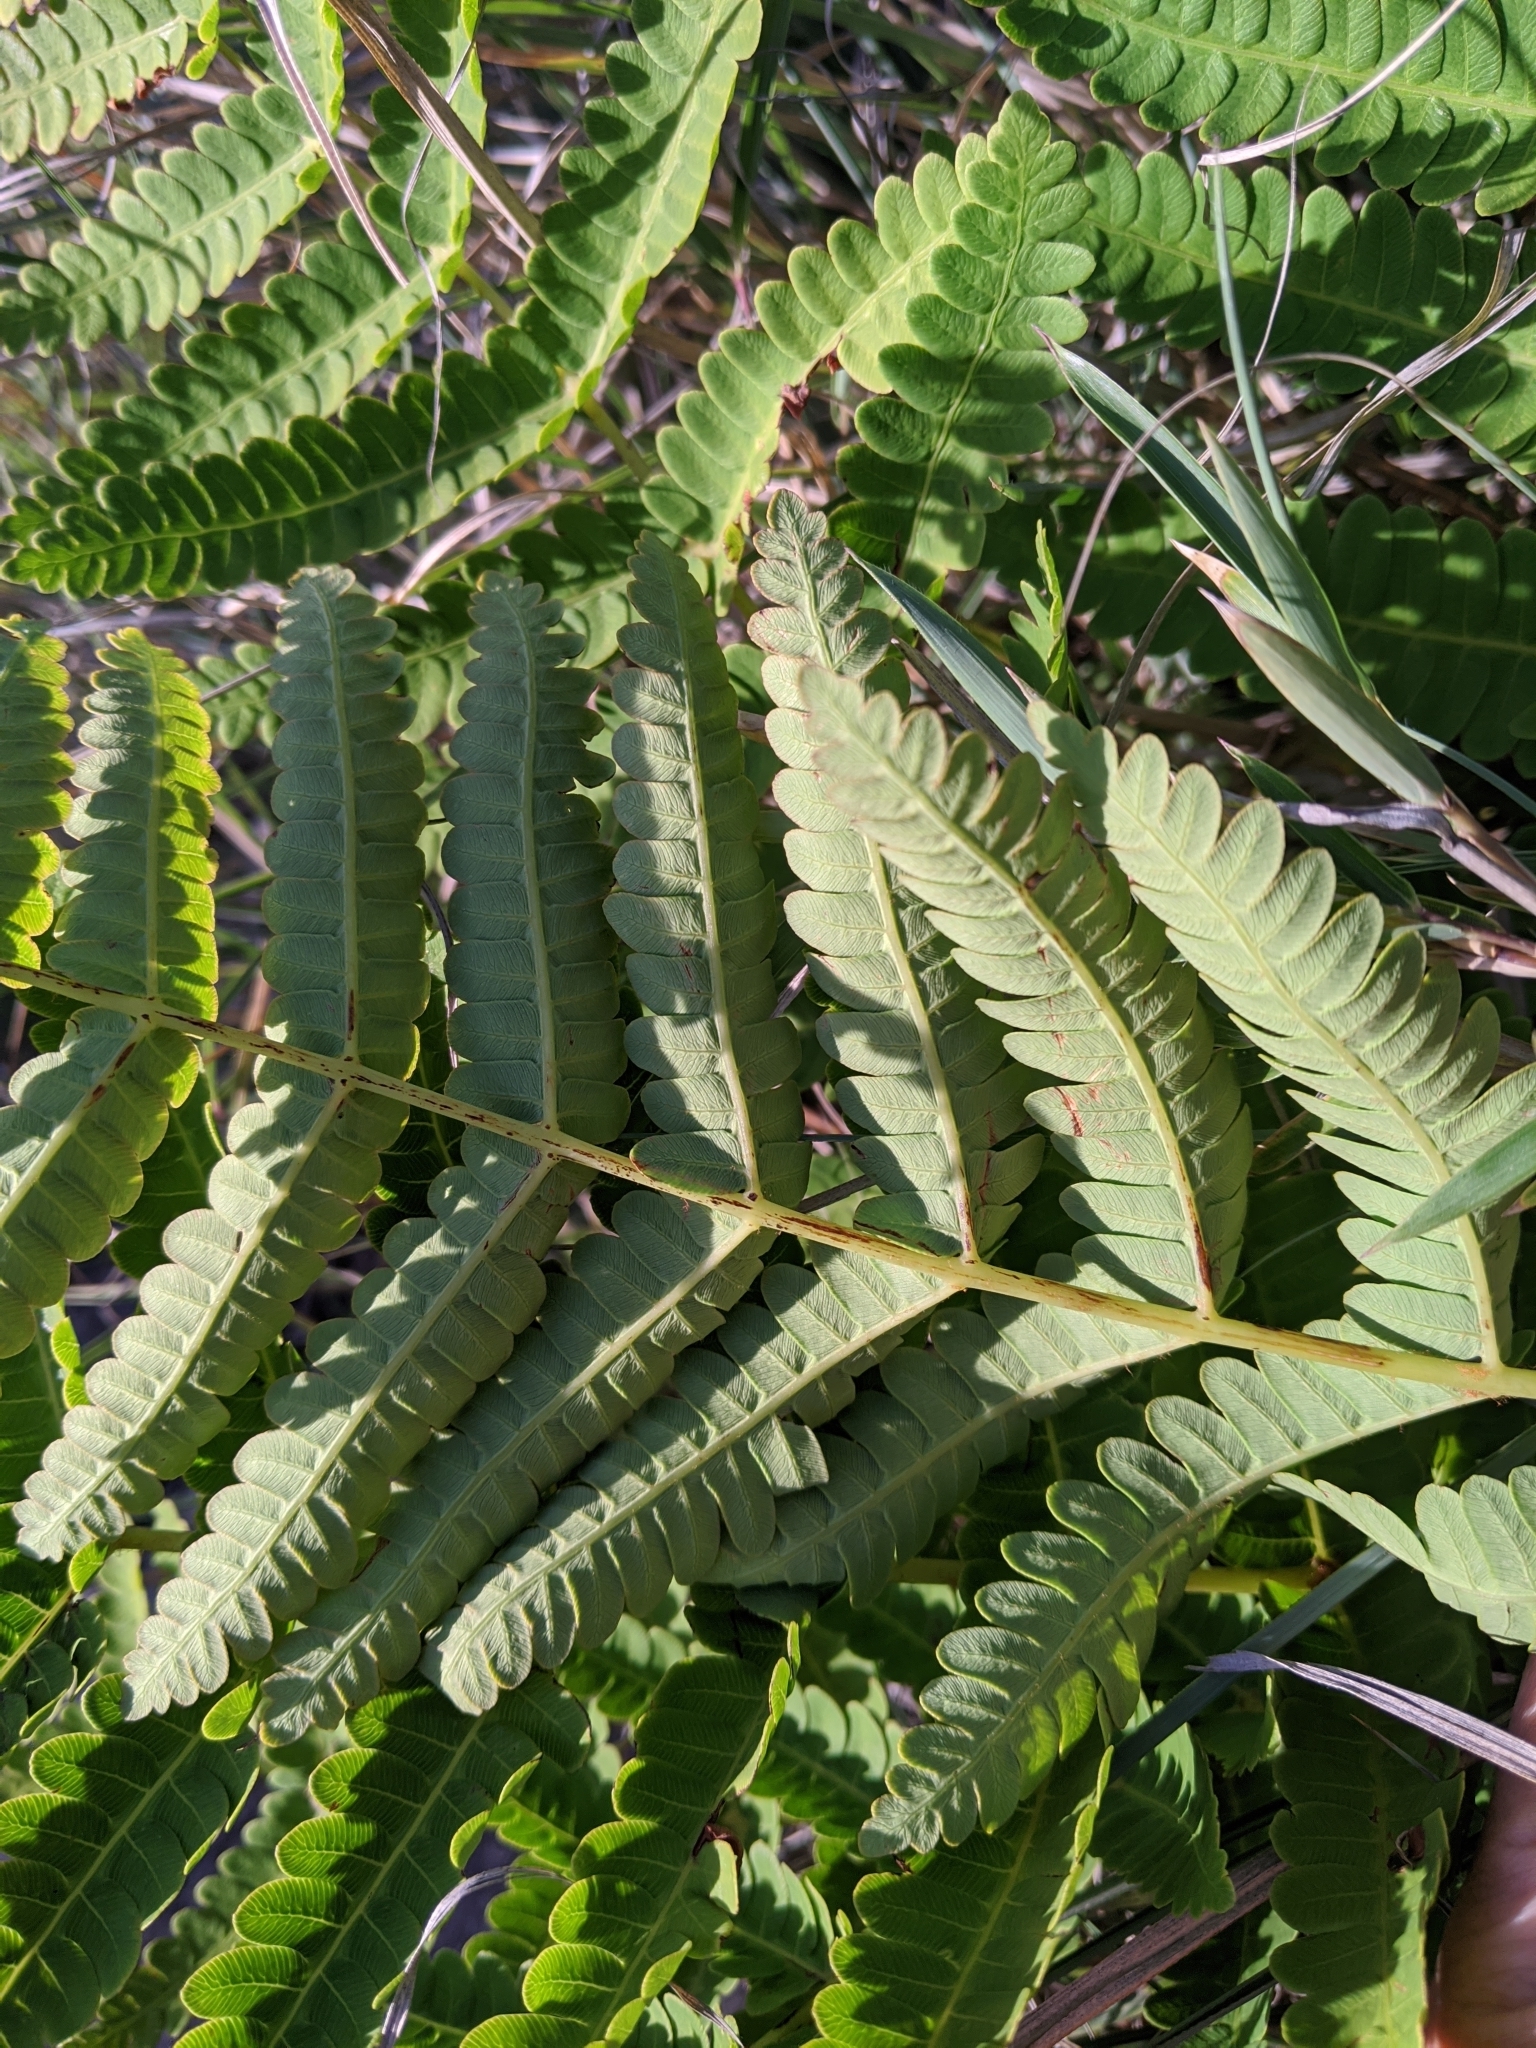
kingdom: Plantae
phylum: Tracheophyta
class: Polypodiopsida
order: Osmundales
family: Osmundaceae
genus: Claytosmunda
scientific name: Claytosmunda claytoniana
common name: Clayton's fern
